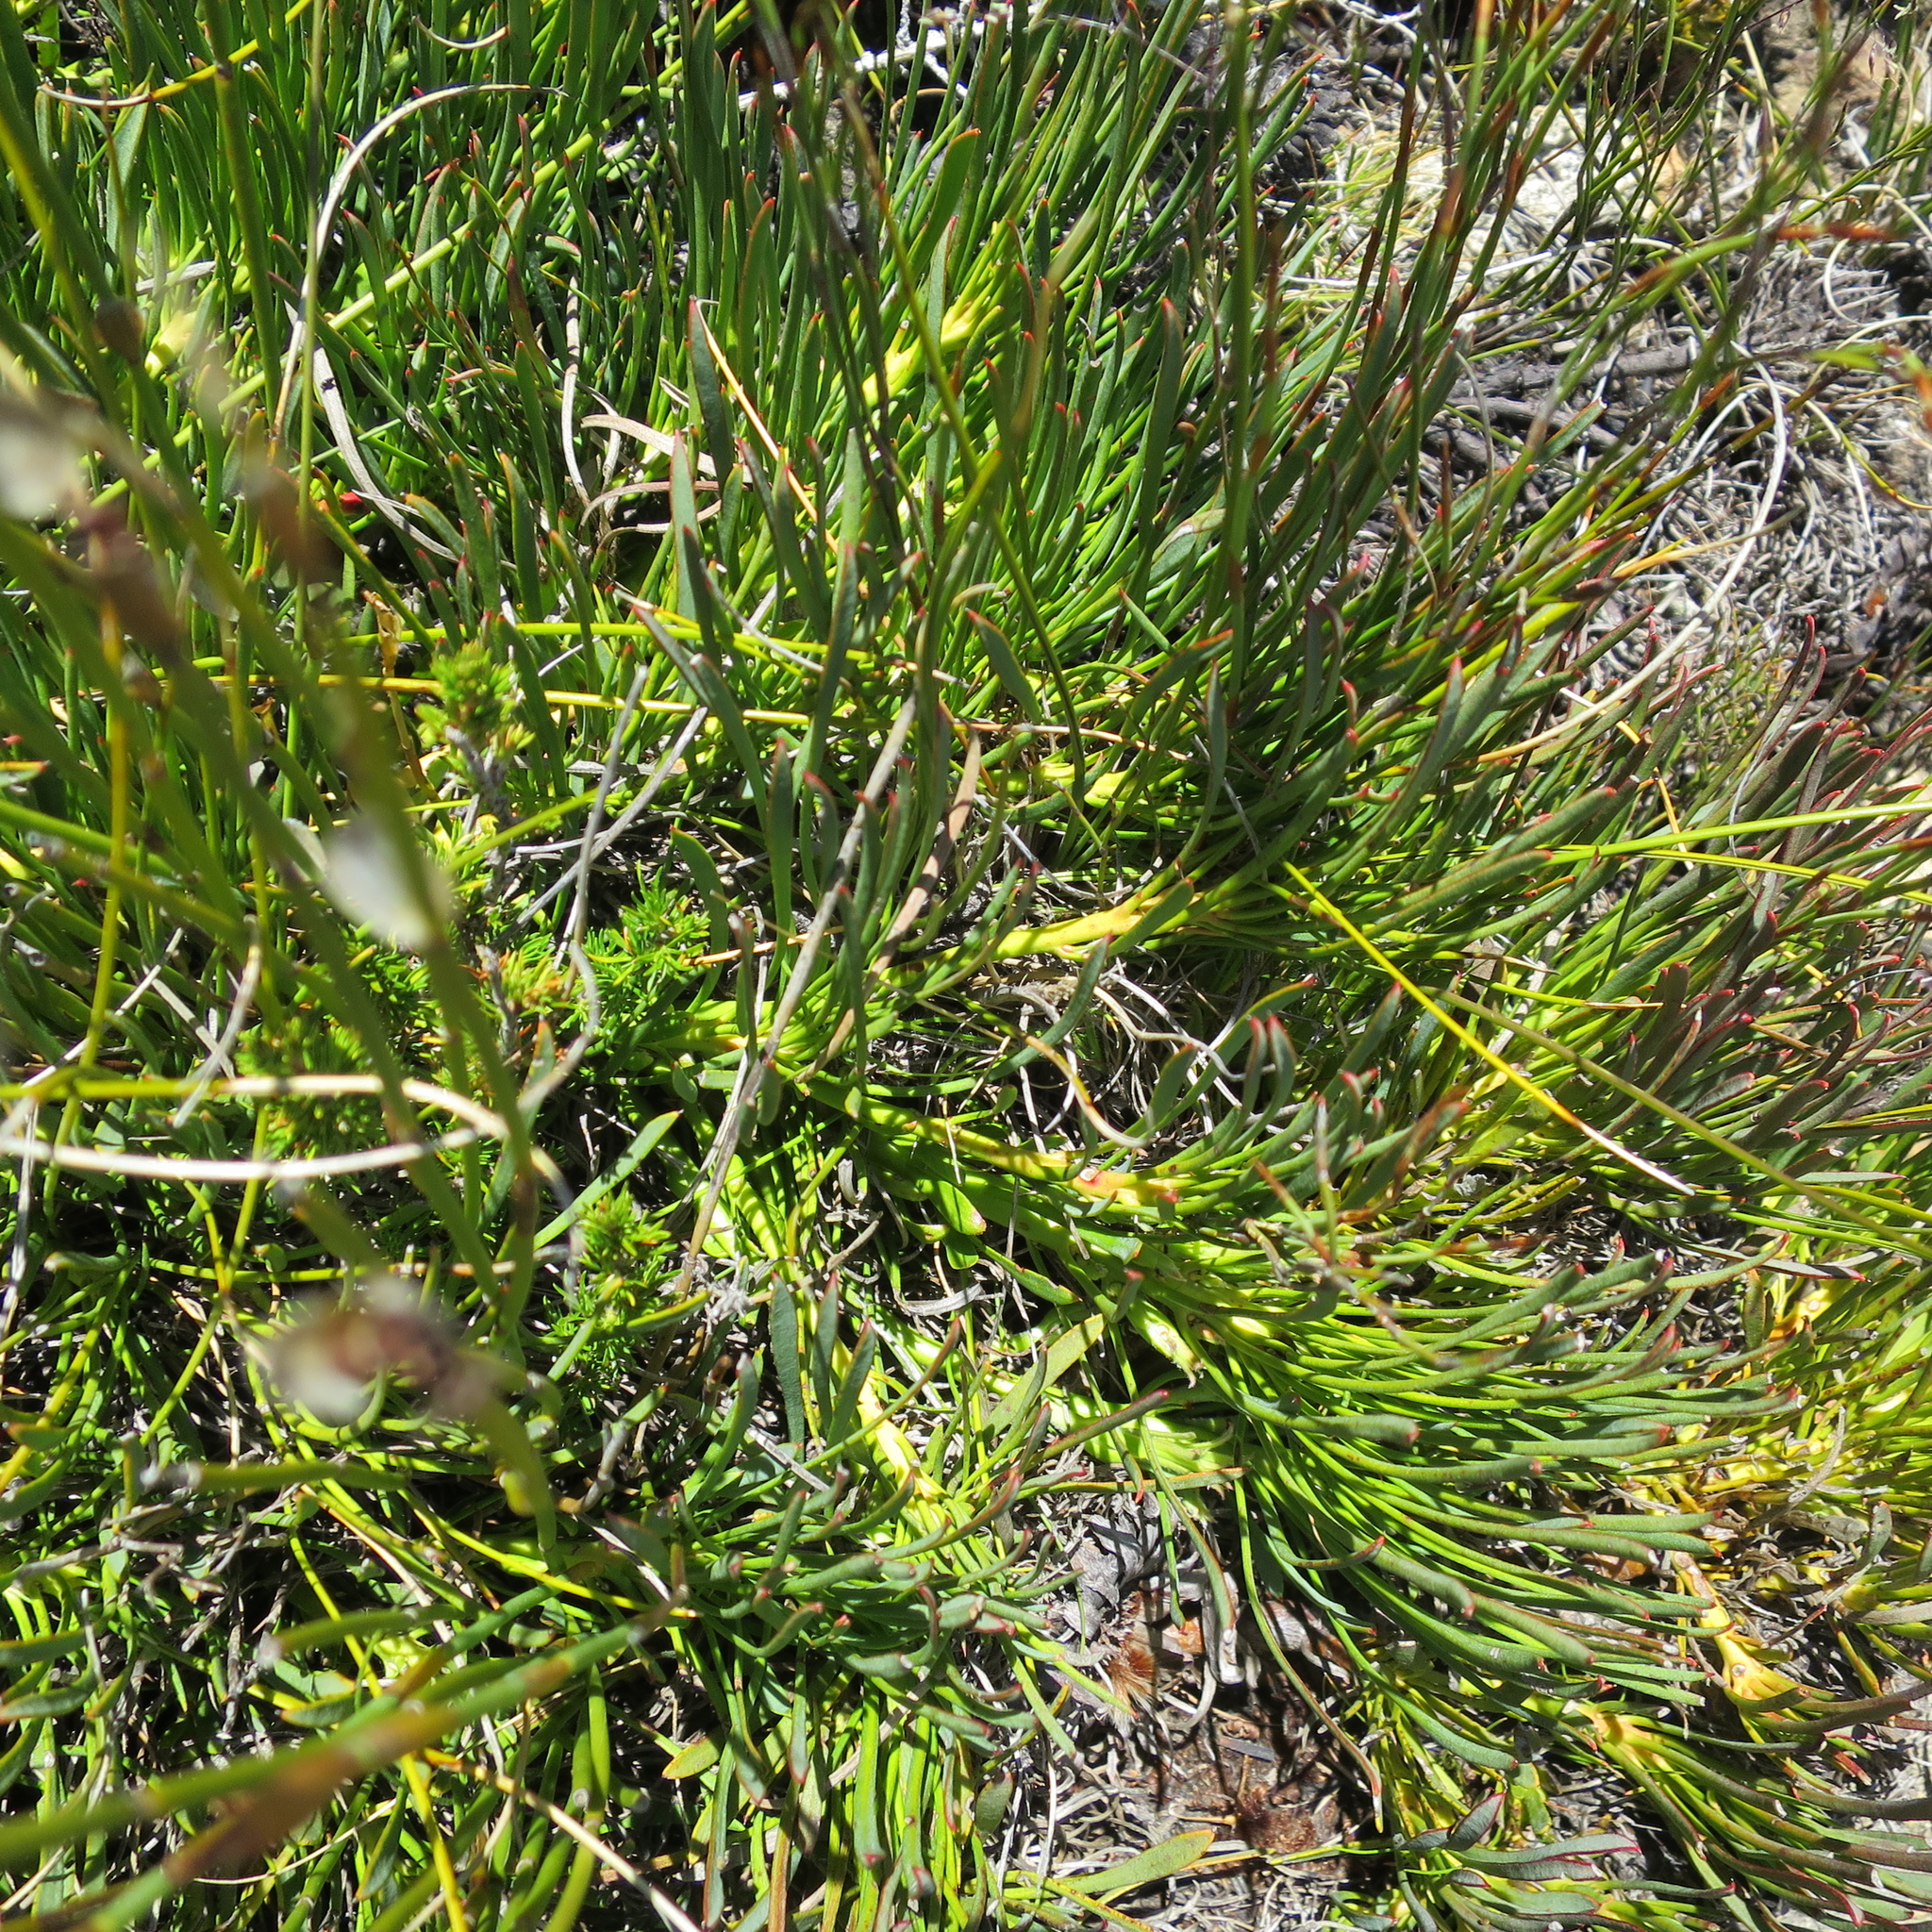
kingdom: Plantae
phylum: Tracheophyta
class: Magnoliopsida
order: Proteales
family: Proteaceae
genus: Protea
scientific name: Protea montana
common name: Swartberg sugarbush
